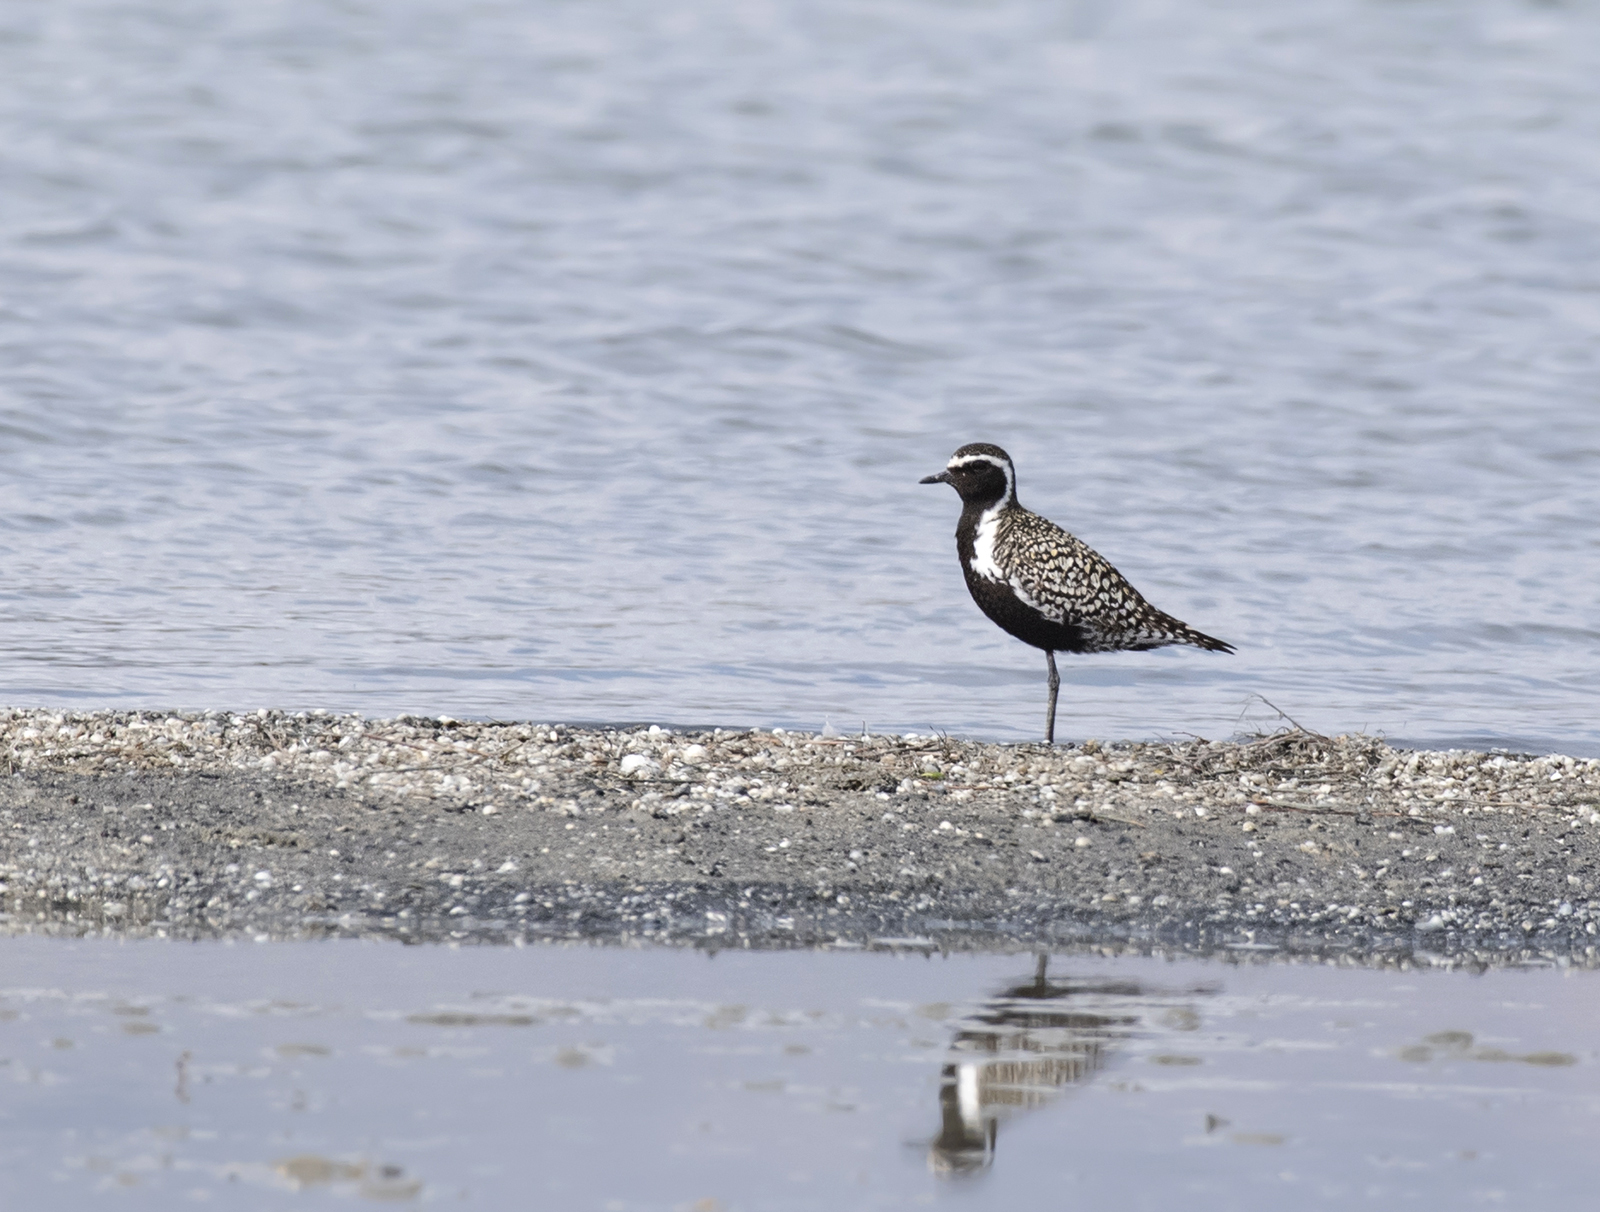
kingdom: Animalia
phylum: Chordata
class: Aves
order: Charadriiformes
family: Charadriidae
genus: Pluvialis
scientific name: Pluvialis fulva
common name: Pacific golden plover
